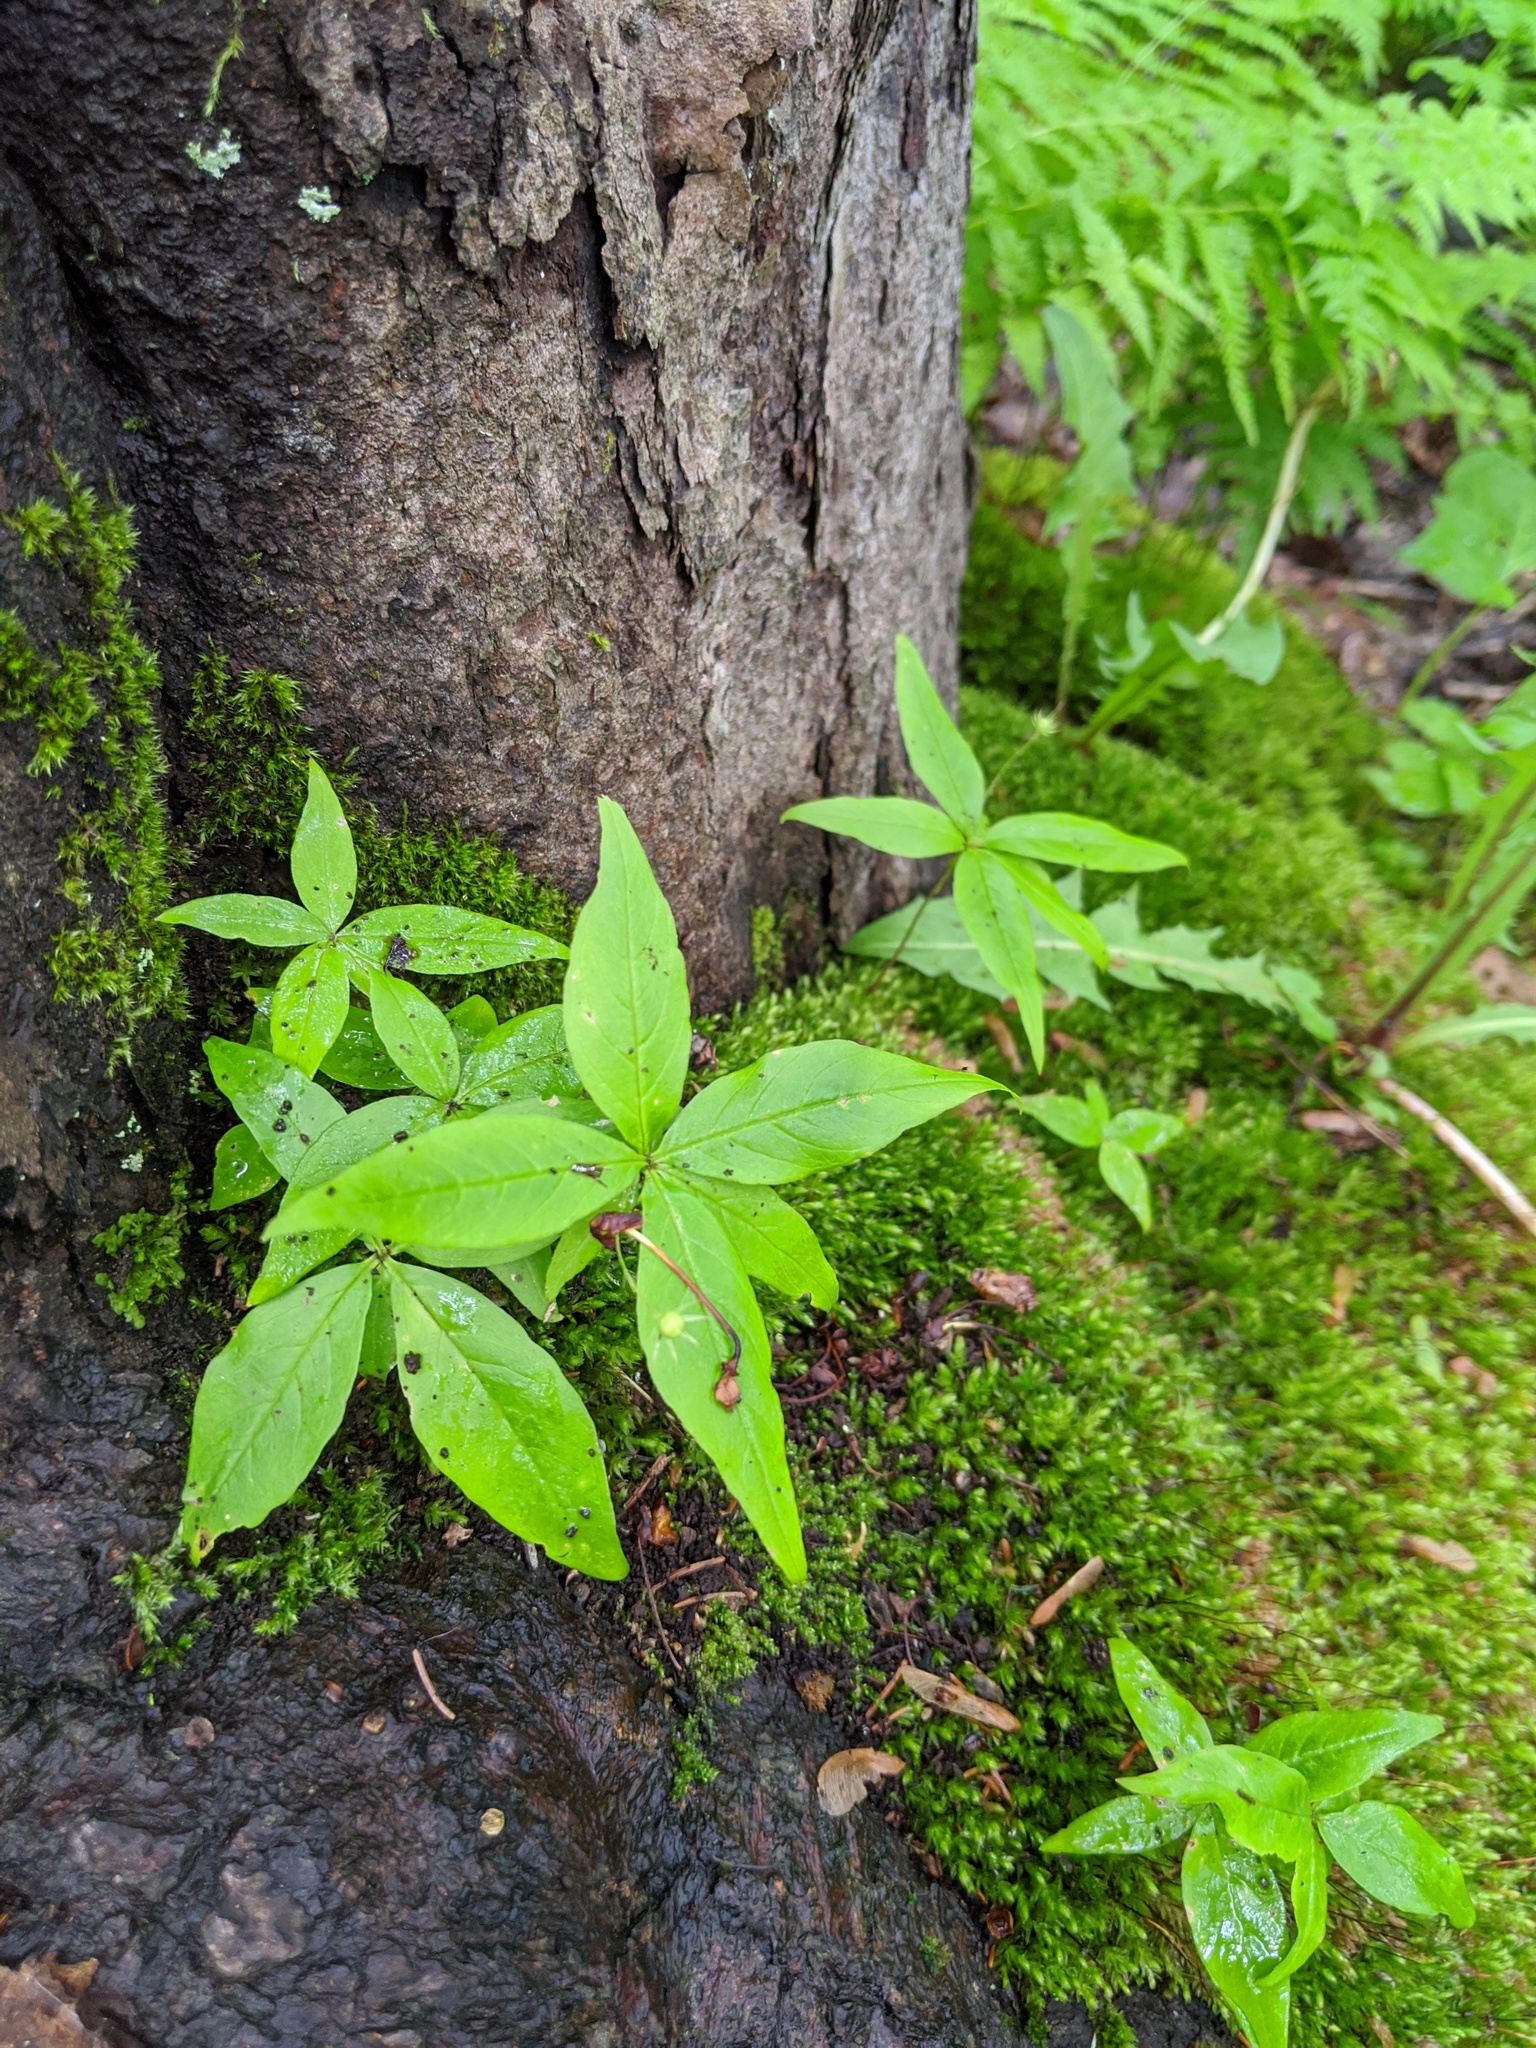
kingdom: Plantae
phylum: Tracheophyta
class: Magnoliopsida
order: Ericales
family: Primulaceae
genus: Lysimachia
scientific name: Lysimachia borealis
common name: American starflower
